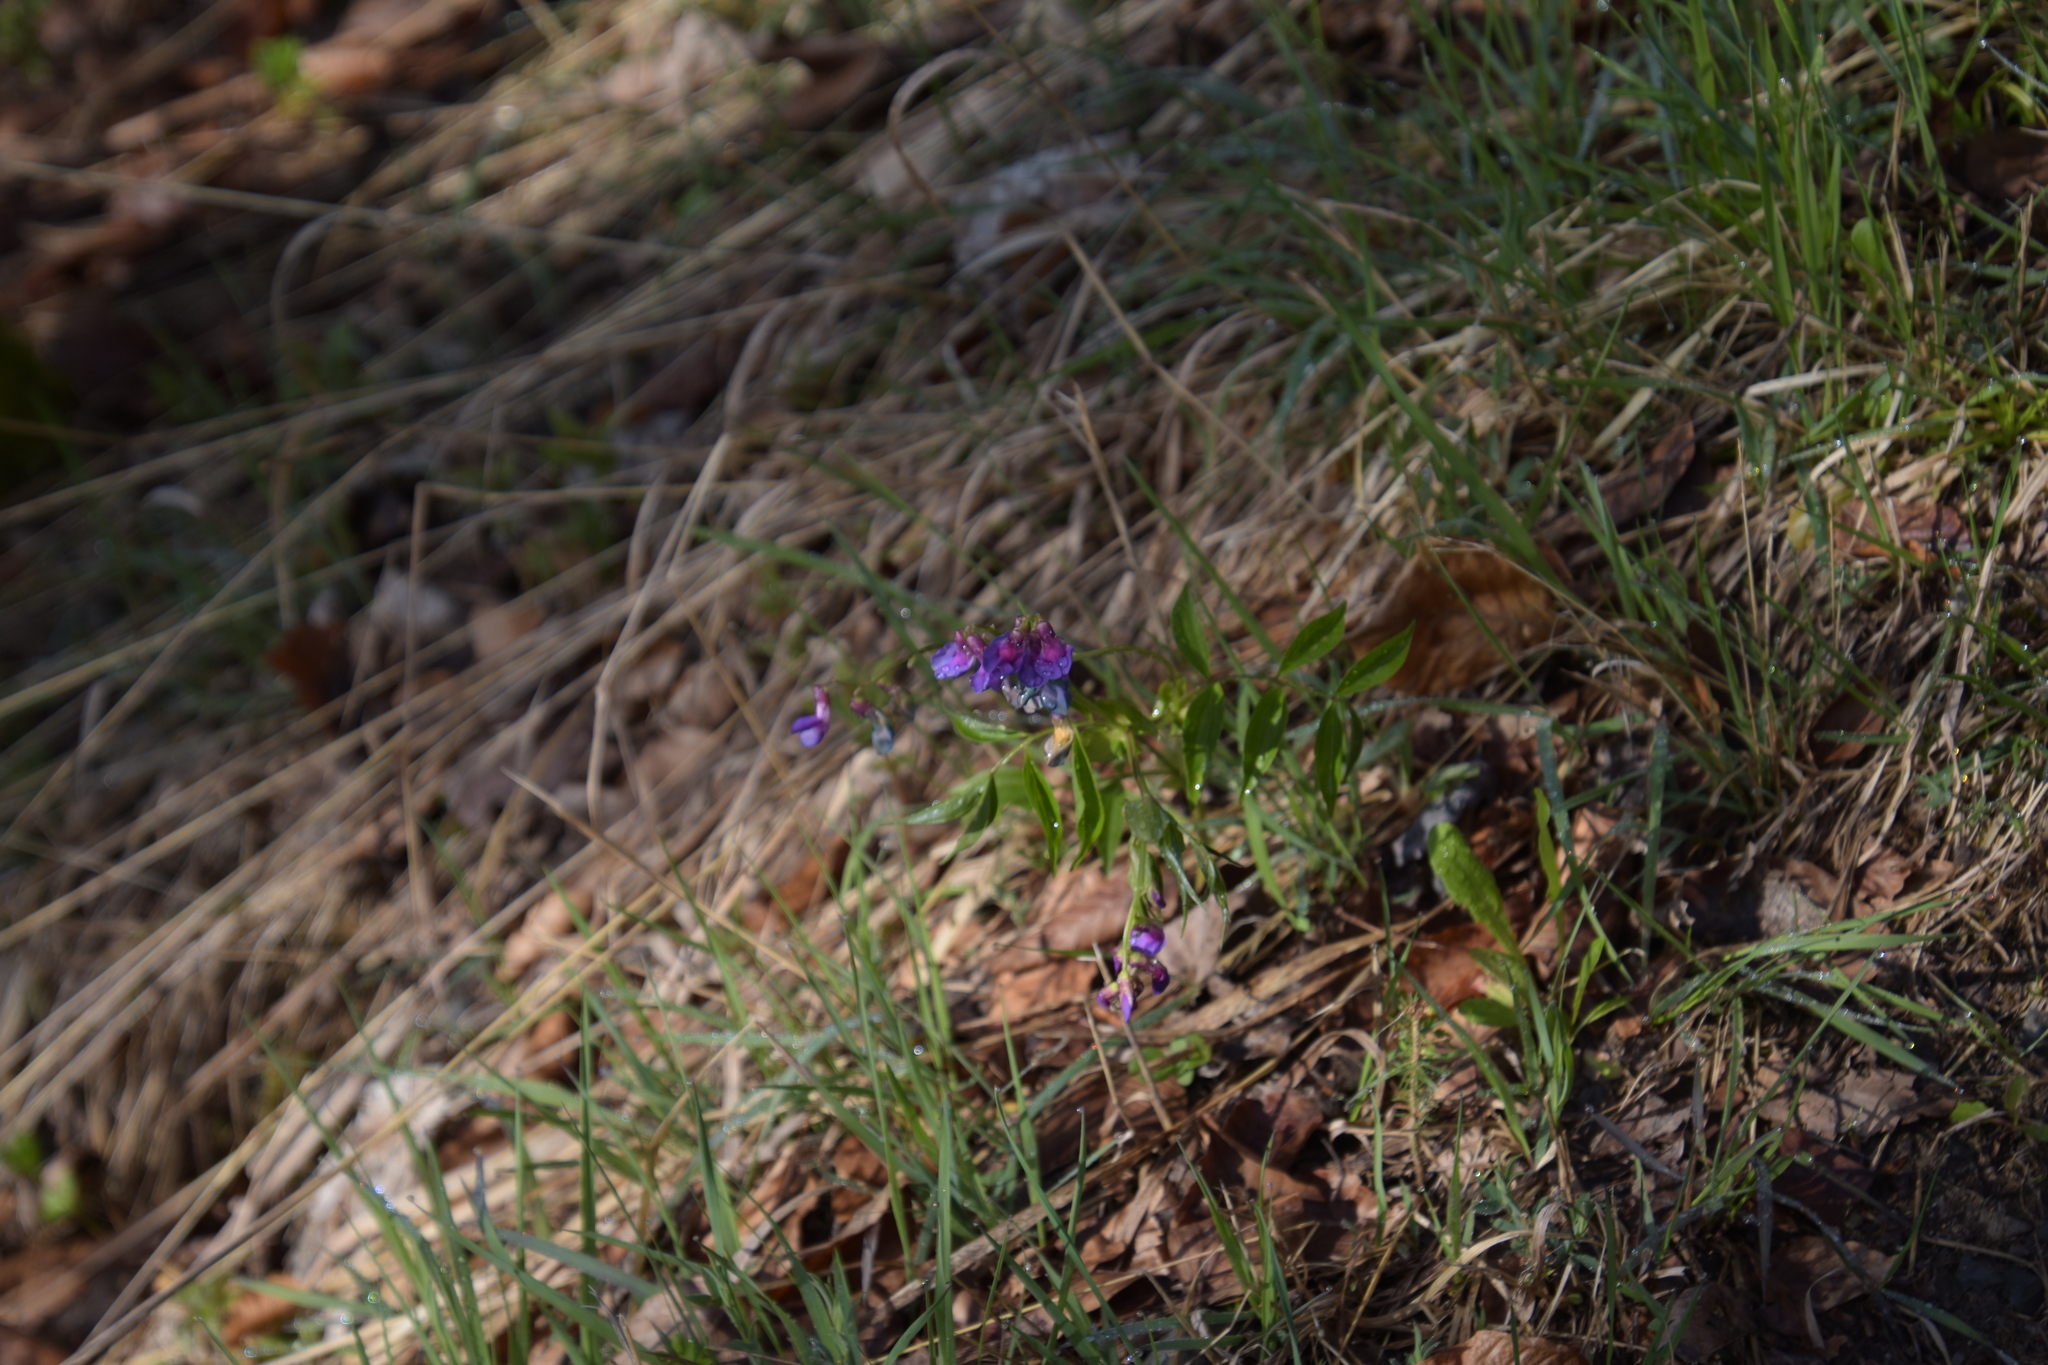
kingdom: Plantae
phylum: Tracheophyta
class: Magnoliopsida
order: Fabales
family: Fabaceae
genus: Lathyrus
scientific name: Lathyrus vernus
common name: Spring pea
